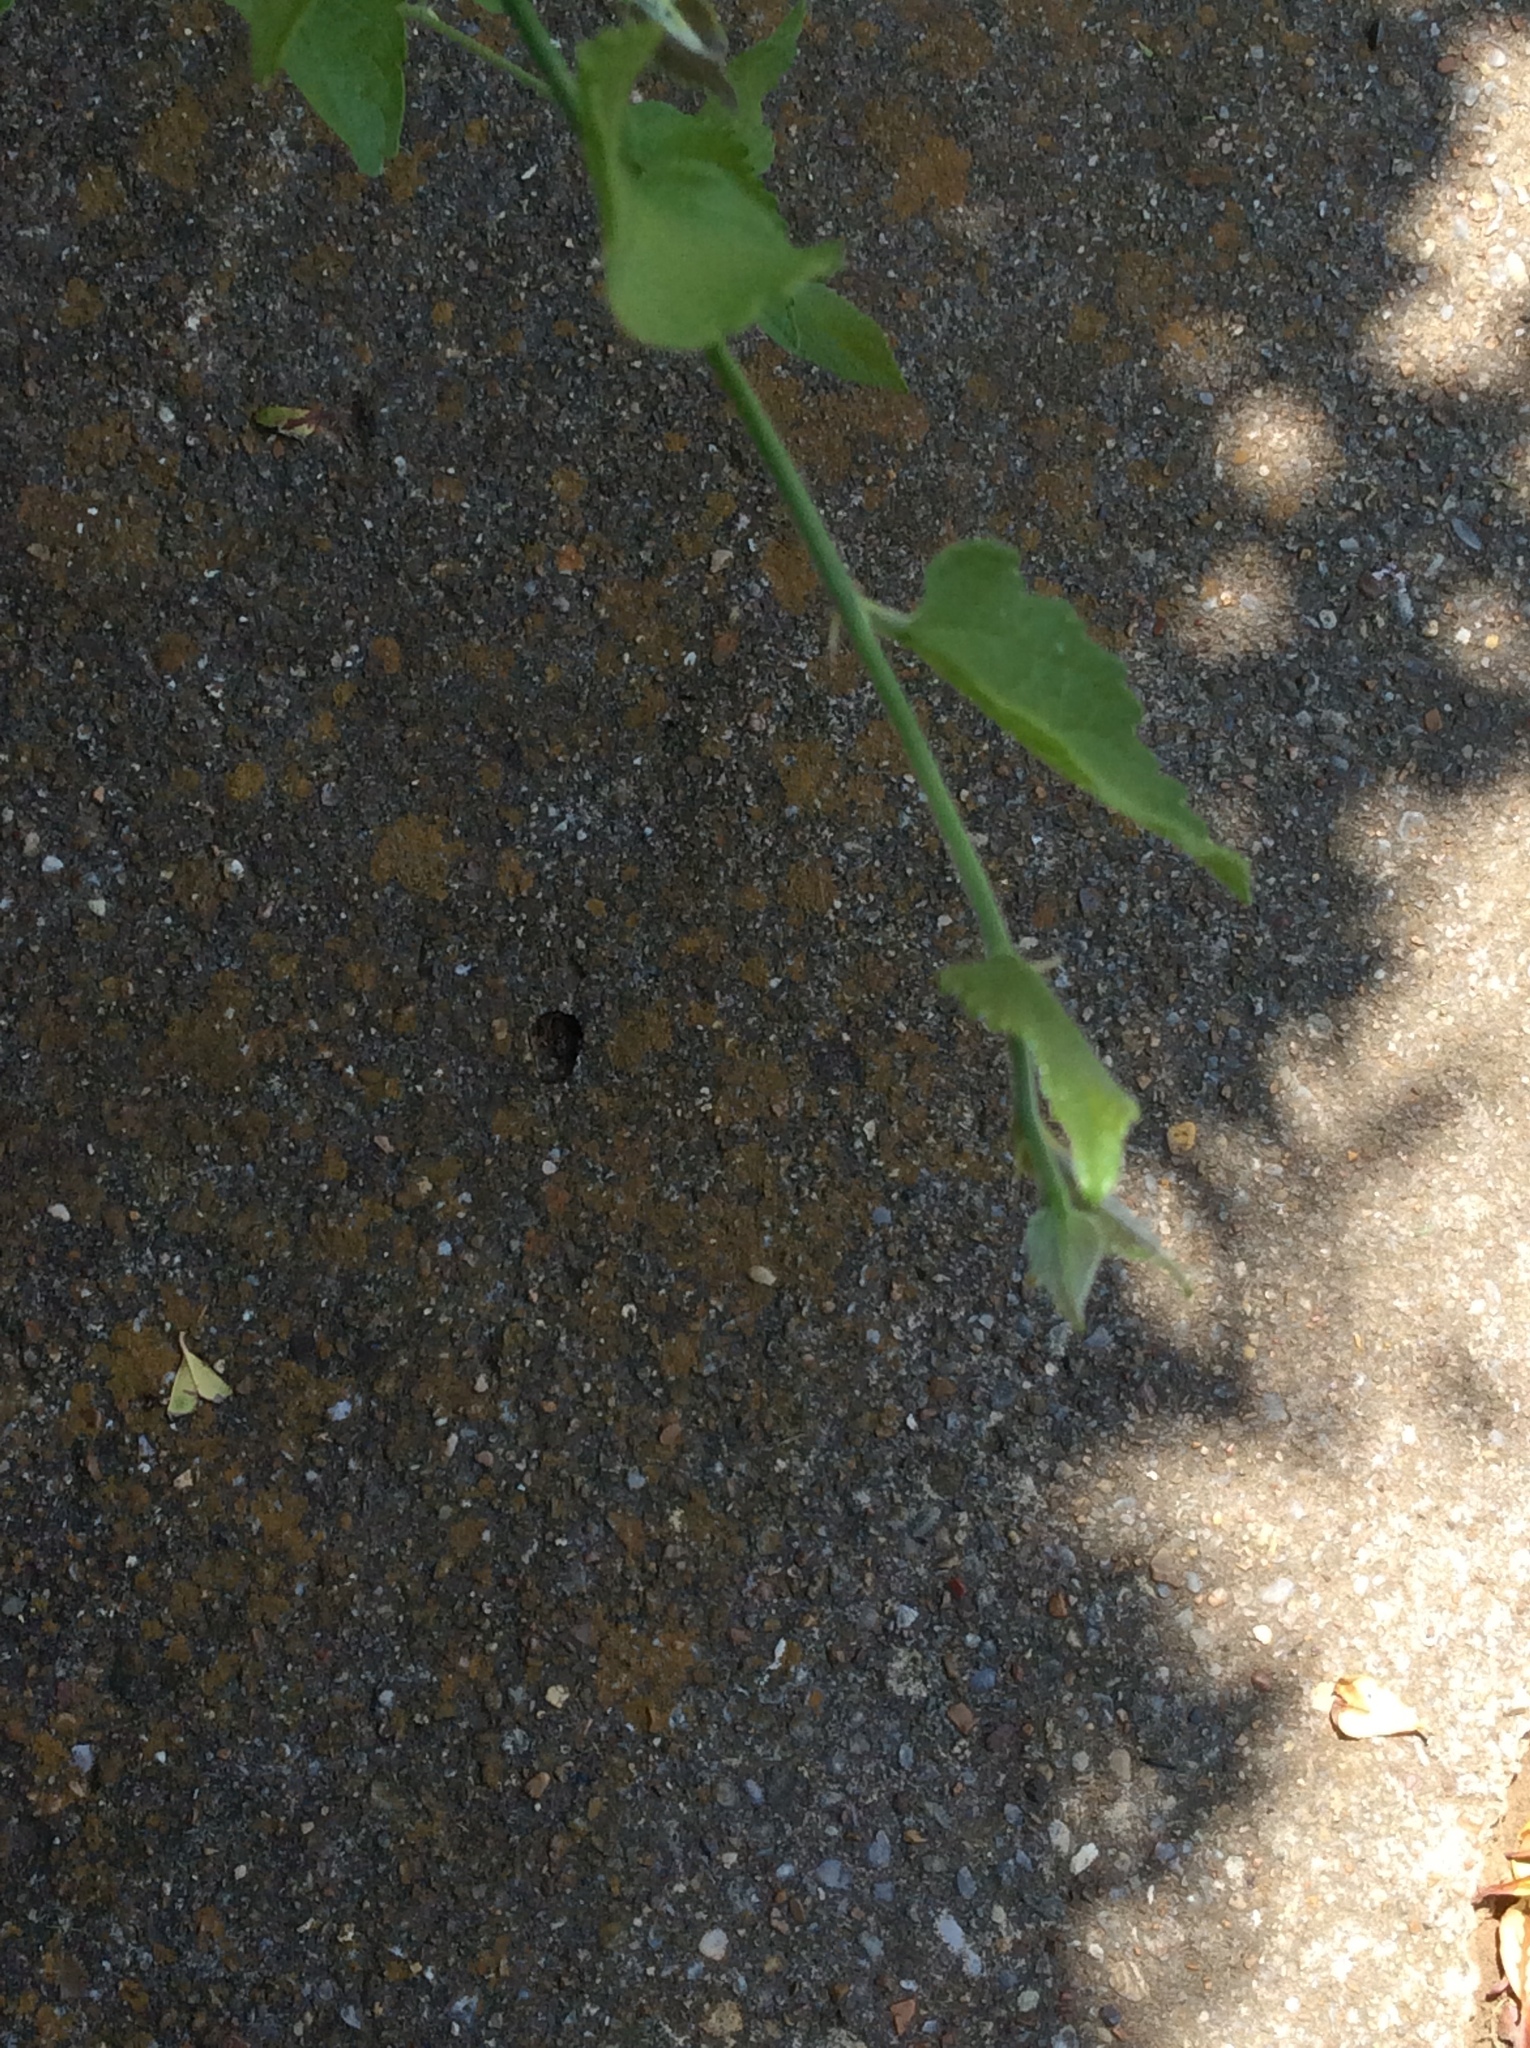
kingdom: Plantae
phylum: Tracheophyta
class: Magnoliopsida
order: Rosales
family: Cannabaceae
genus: Celtis
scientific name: Celtis laevigata
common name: Sugarberry
